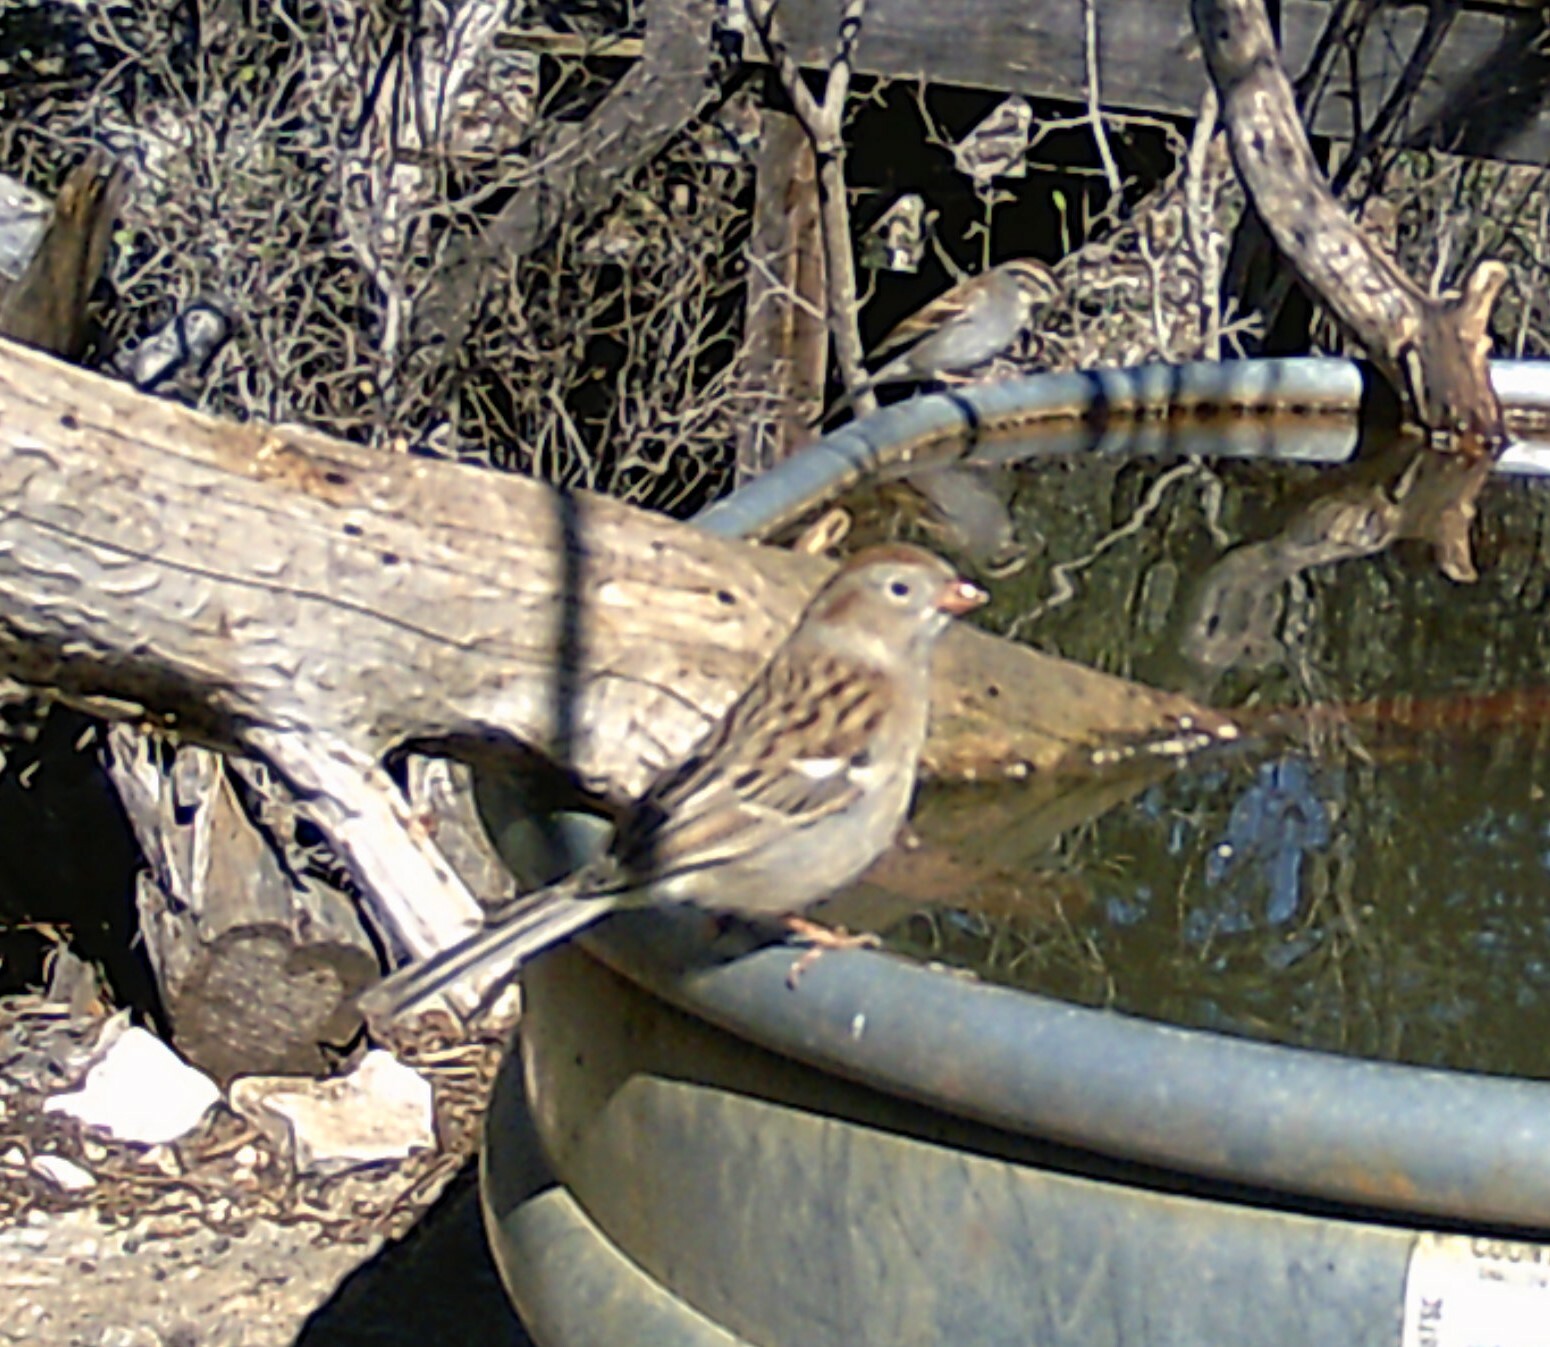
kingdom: Animalia
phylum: Chordata
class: Aves
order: Passeriformes
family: Passerellidae
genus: Spizella
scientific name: Spizella pusilla
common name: Field sparrow
